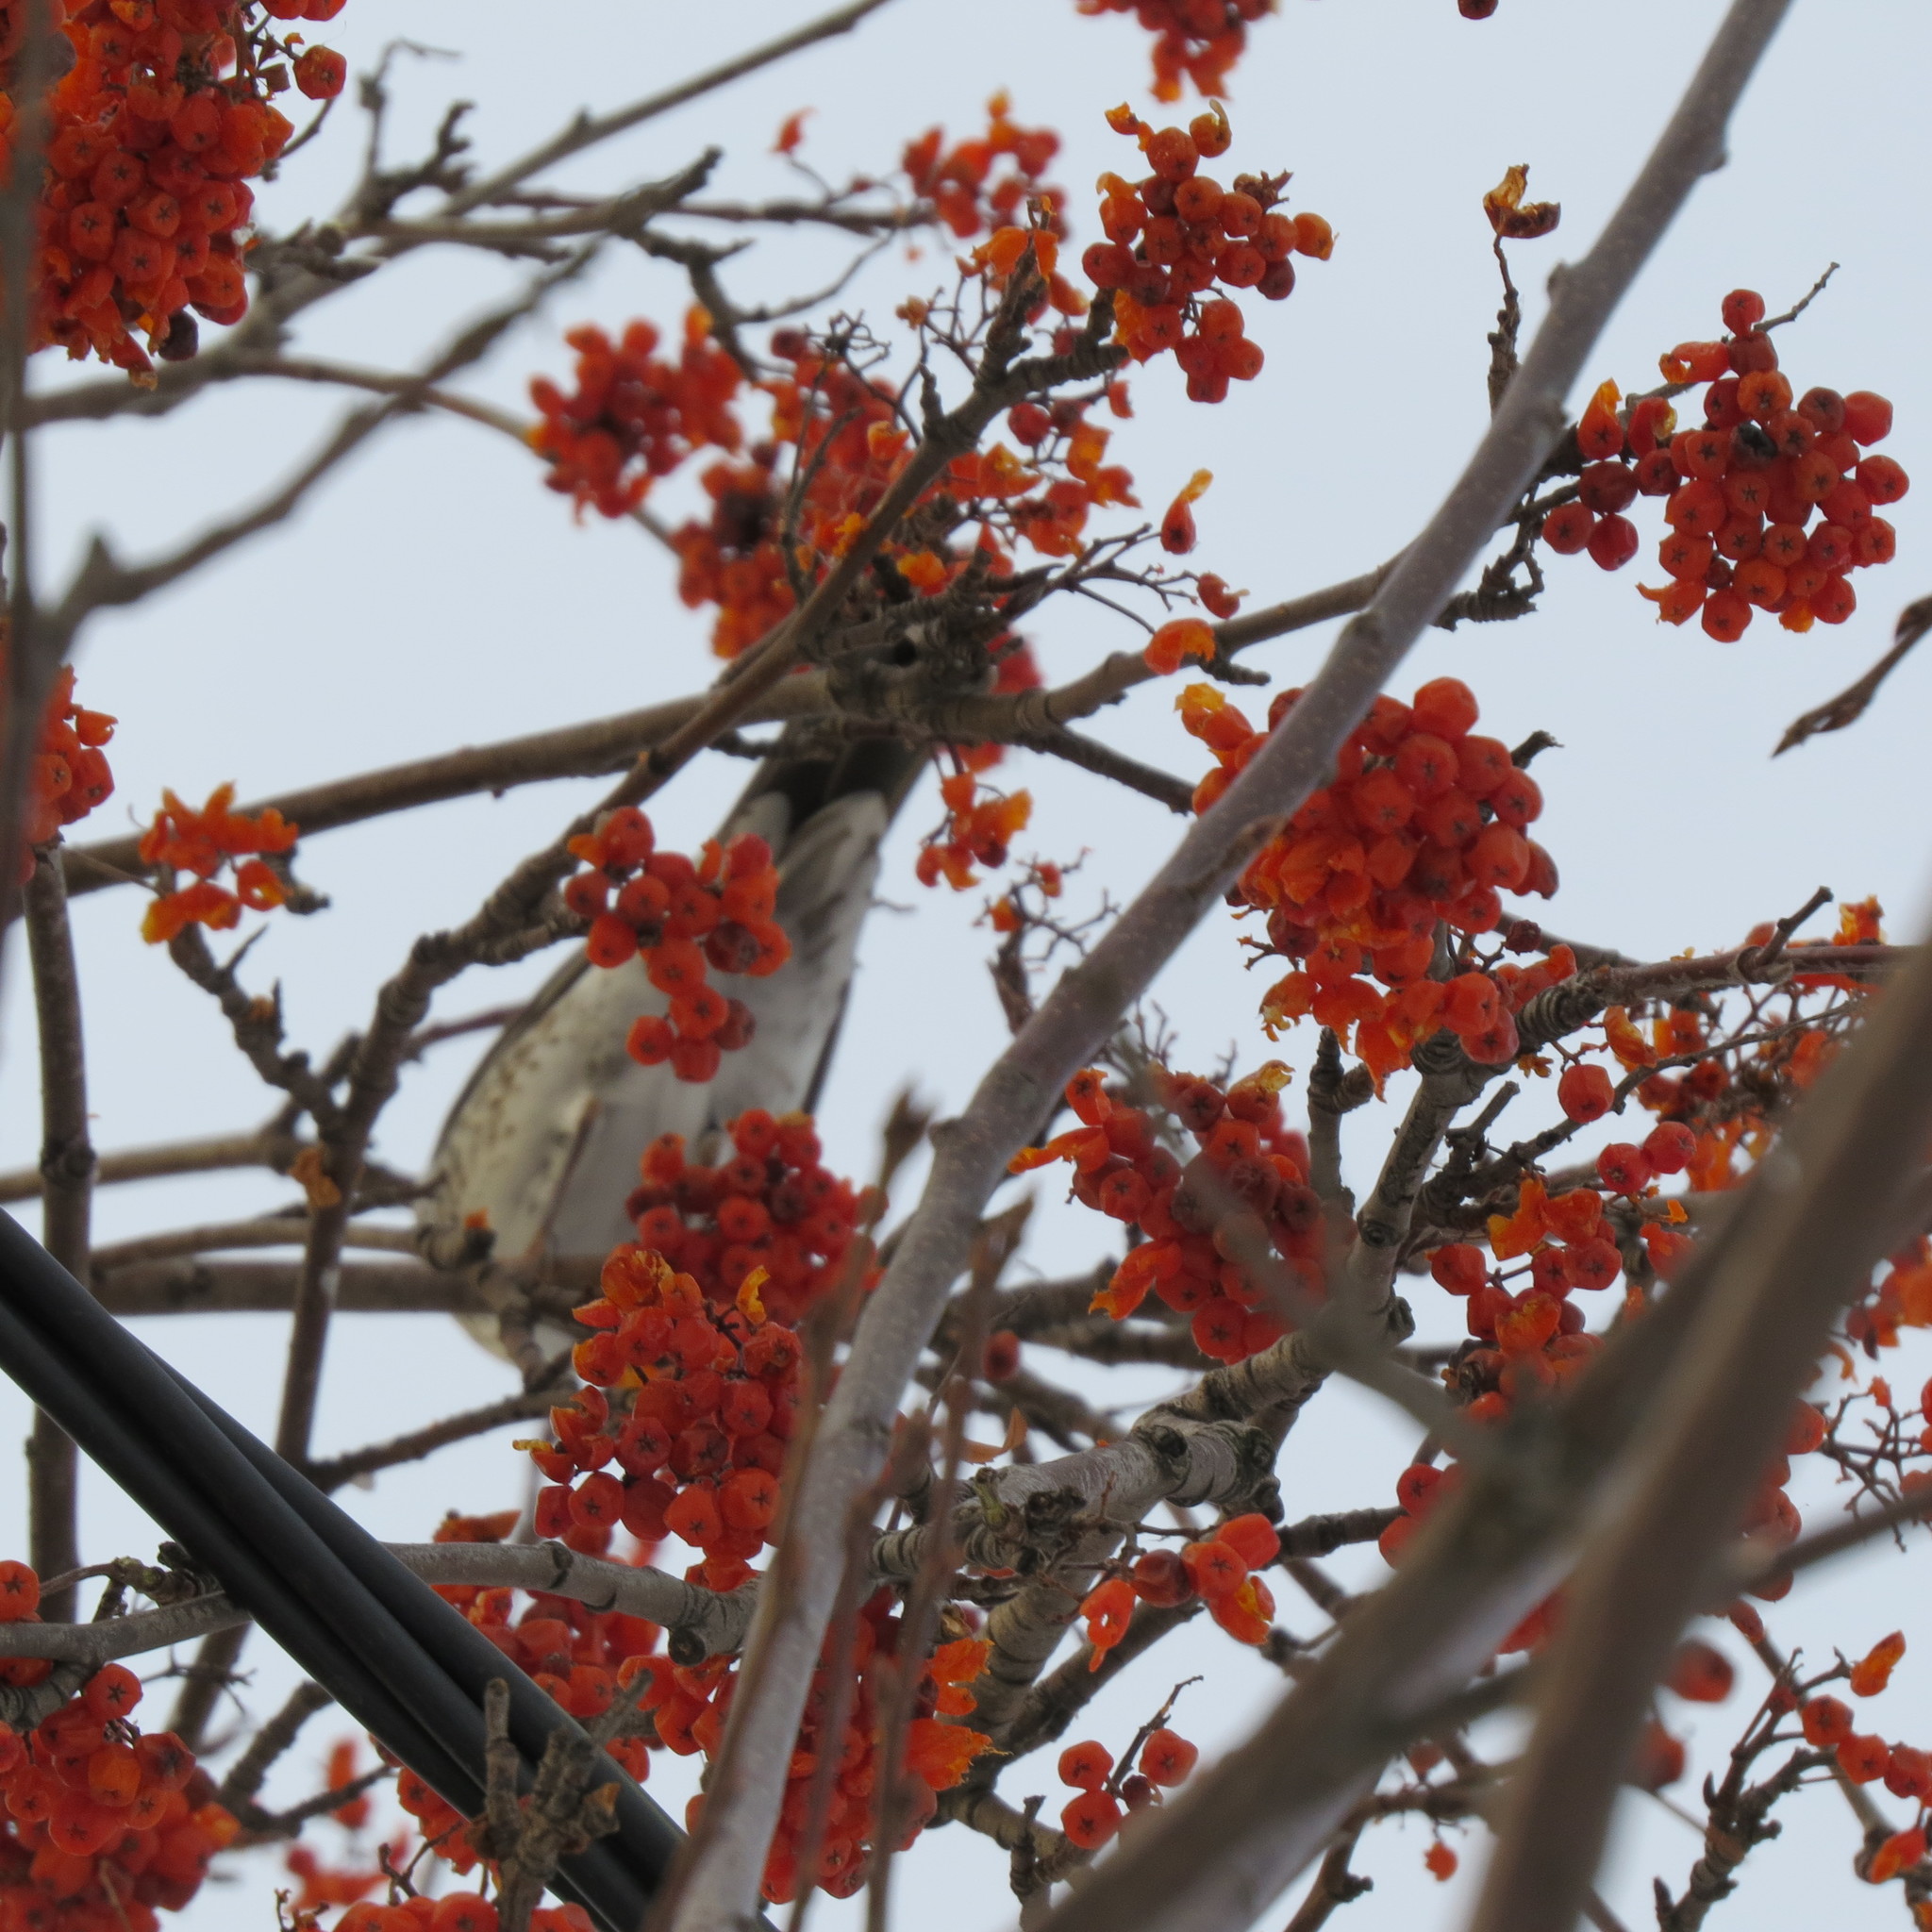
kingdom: Animalia
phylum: Chordata
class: Aves
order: Passeriformes
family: Turdidae
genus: Turdus
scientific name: Turdus pilaris
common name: Fieldfare
